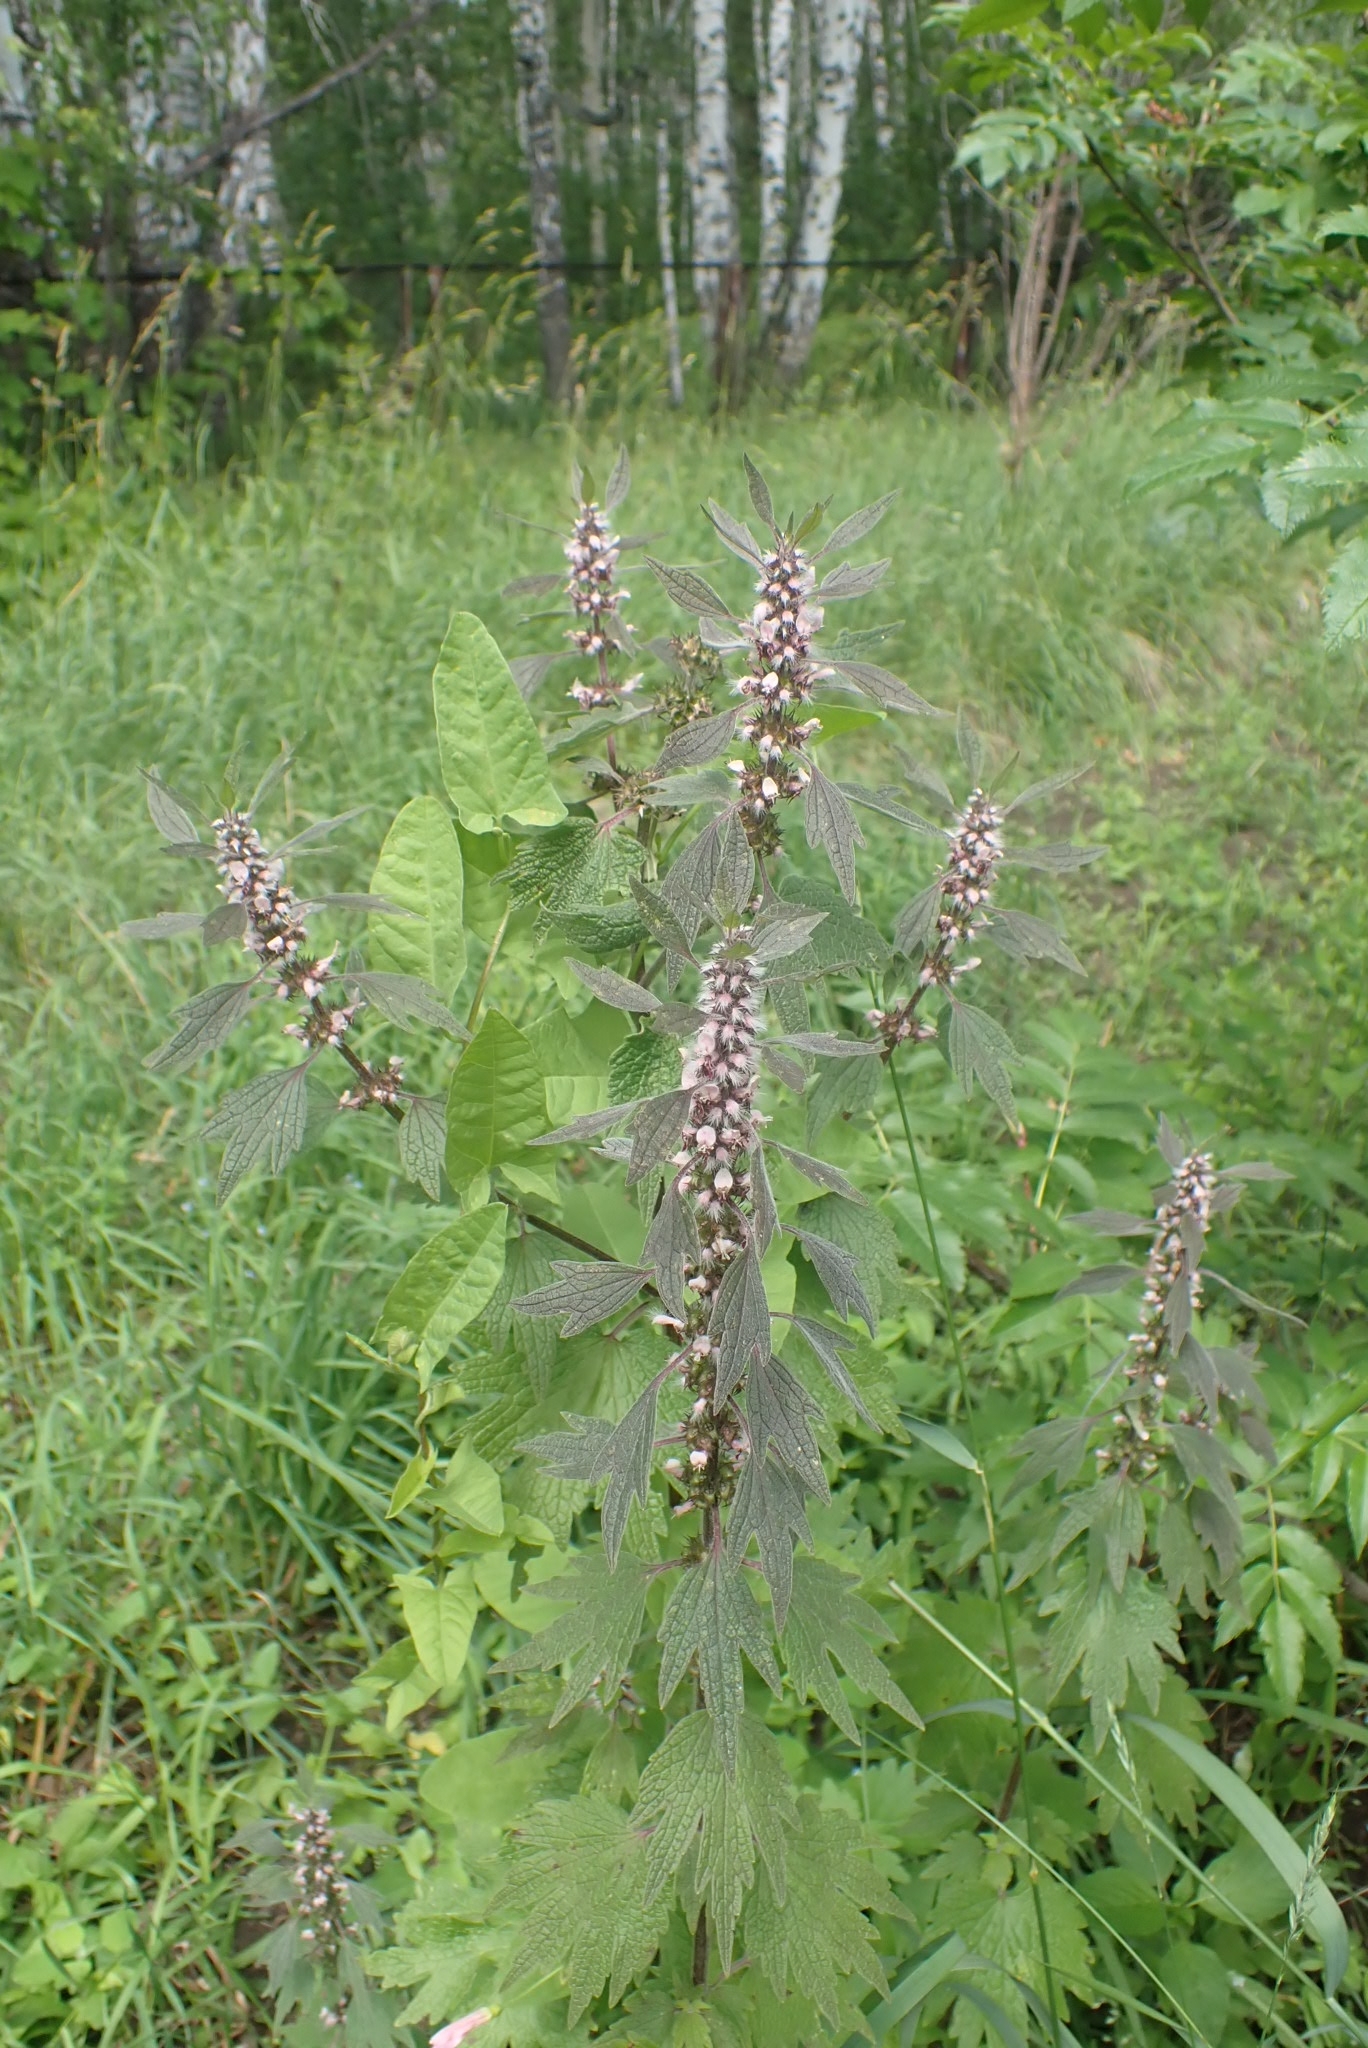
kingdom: Plantae
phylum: Tracheophyta
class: Magnoliopsida
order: Lamiales
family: Lamiaceae
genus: Leonurus
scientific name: Leonurus quinquelobatus
